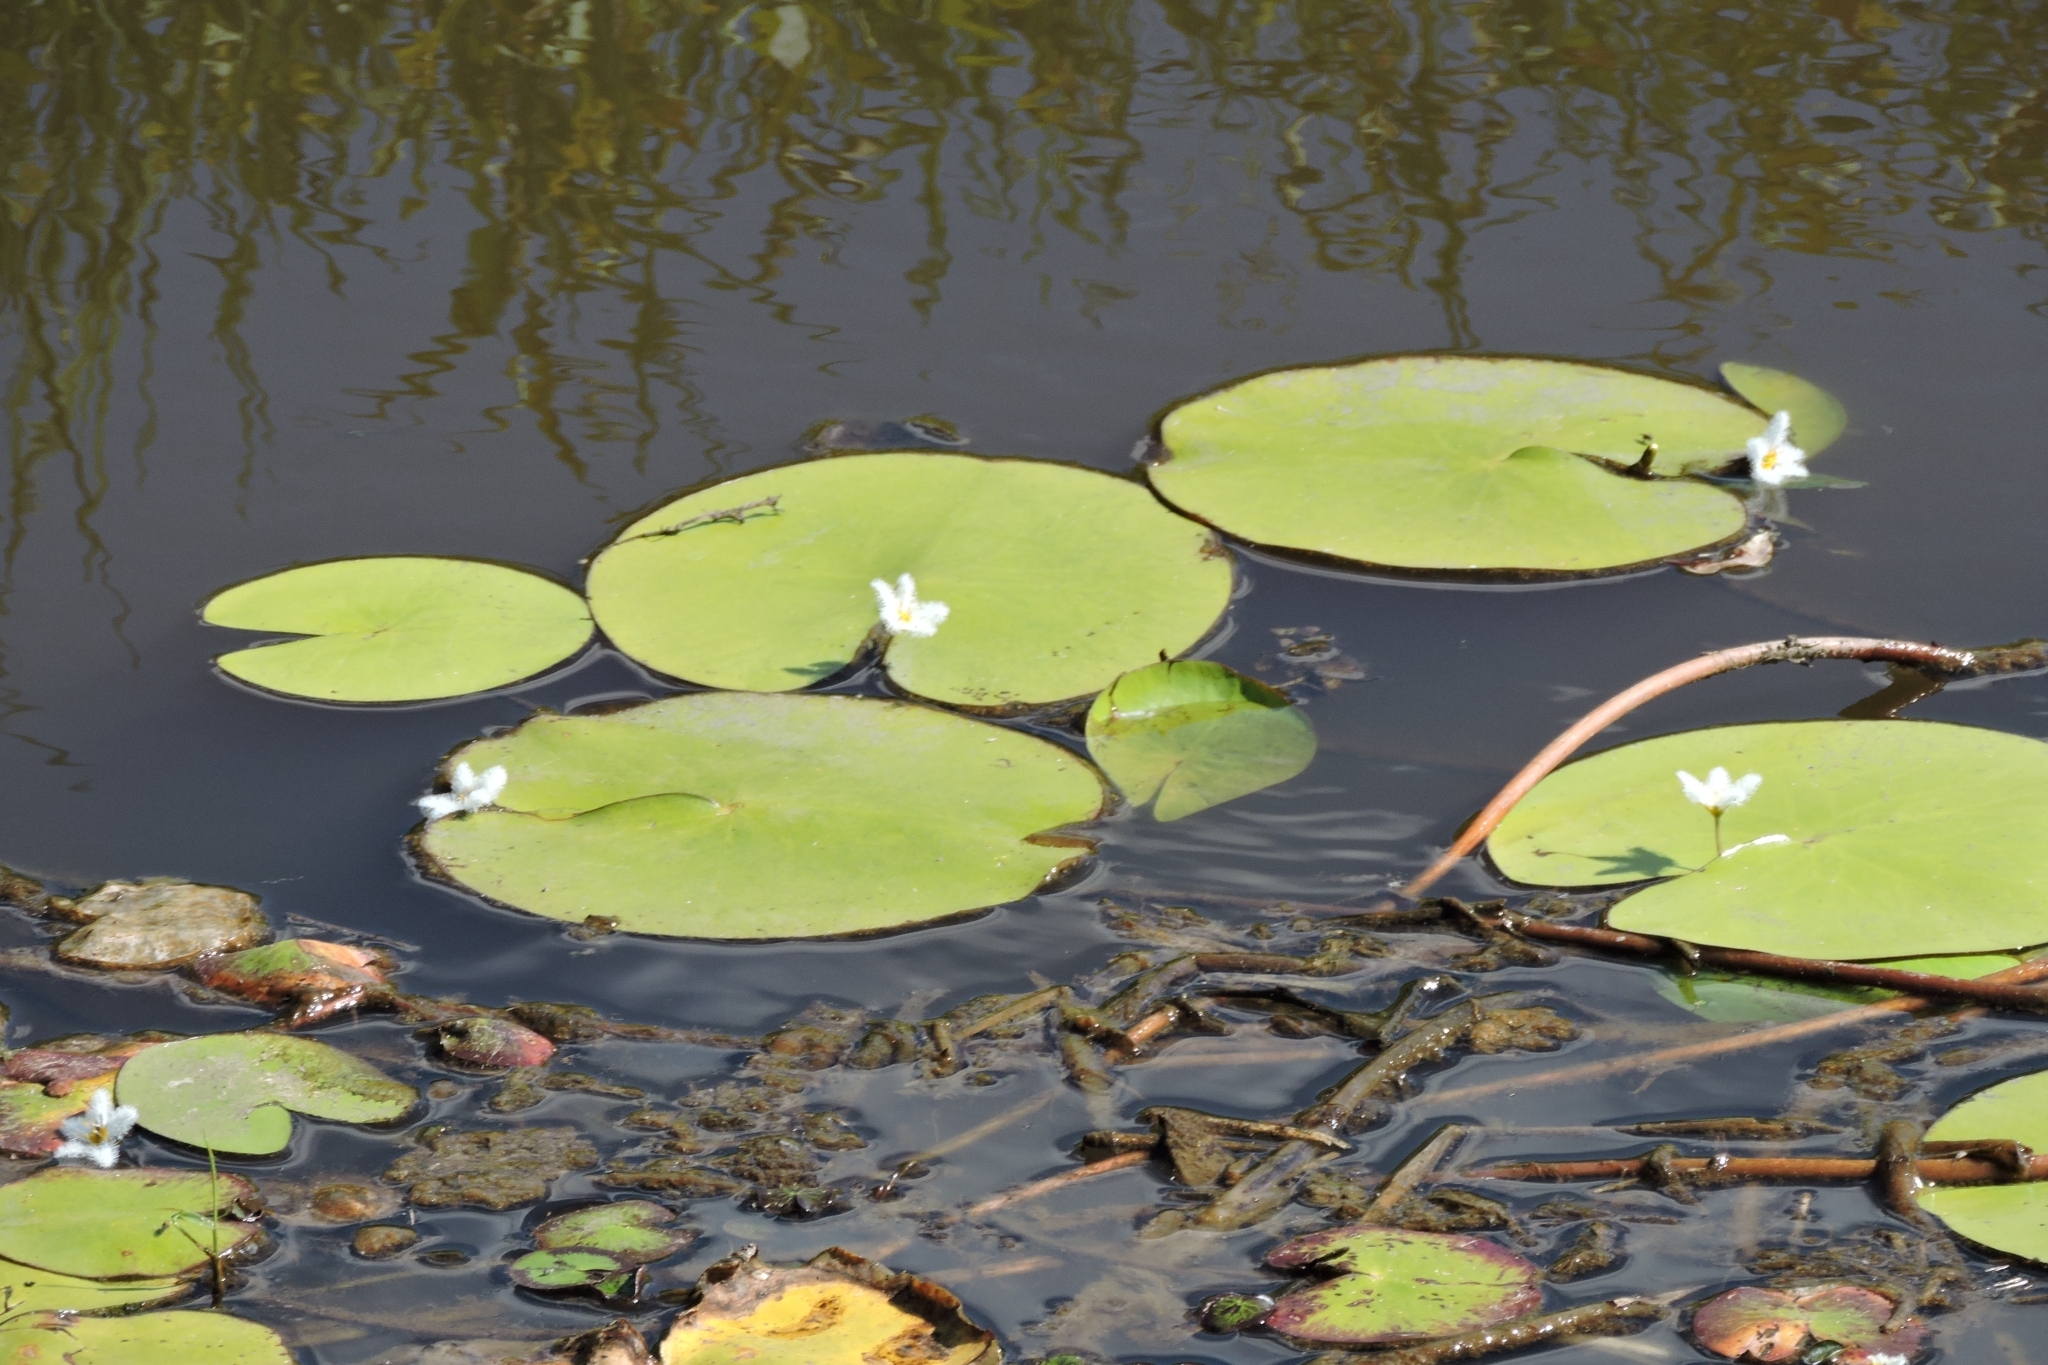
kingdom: Plantae
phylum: Tracheophyta
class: Magnoliopsida
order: Asterales
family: Menyanthaceae
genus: Nymphoides
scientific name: Nymphoides indica
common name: Water-snowflake
